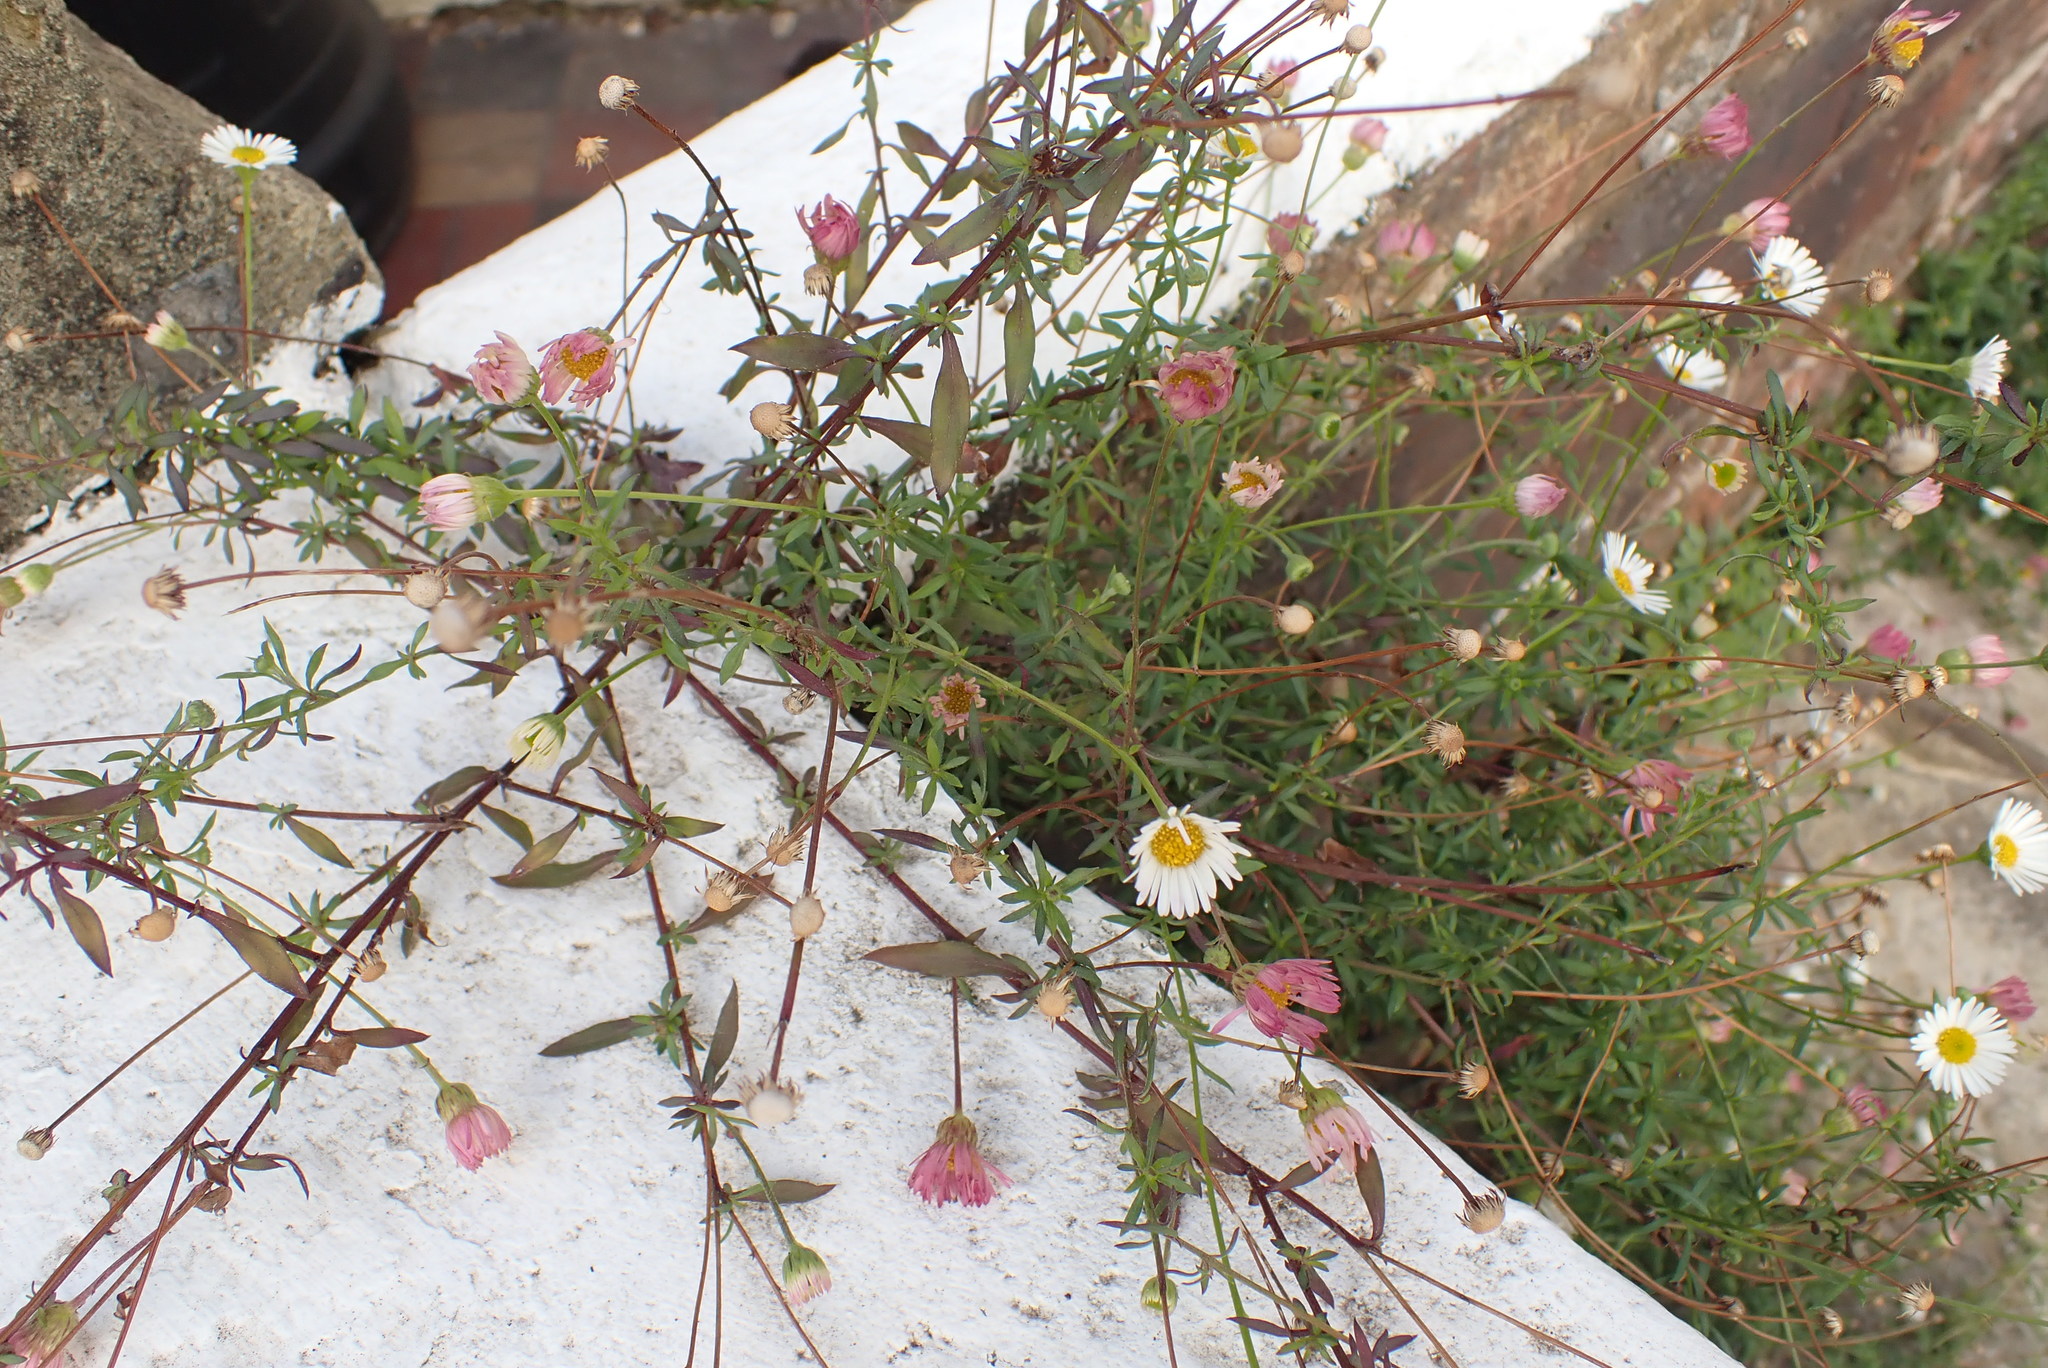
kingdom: Plantae
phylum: Tracheophyta
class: Magnoliopsida
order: Asterales
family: Asteraceae
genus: Erigeron
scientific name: Erigeron karvinskianus
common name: Mexican fleabane
